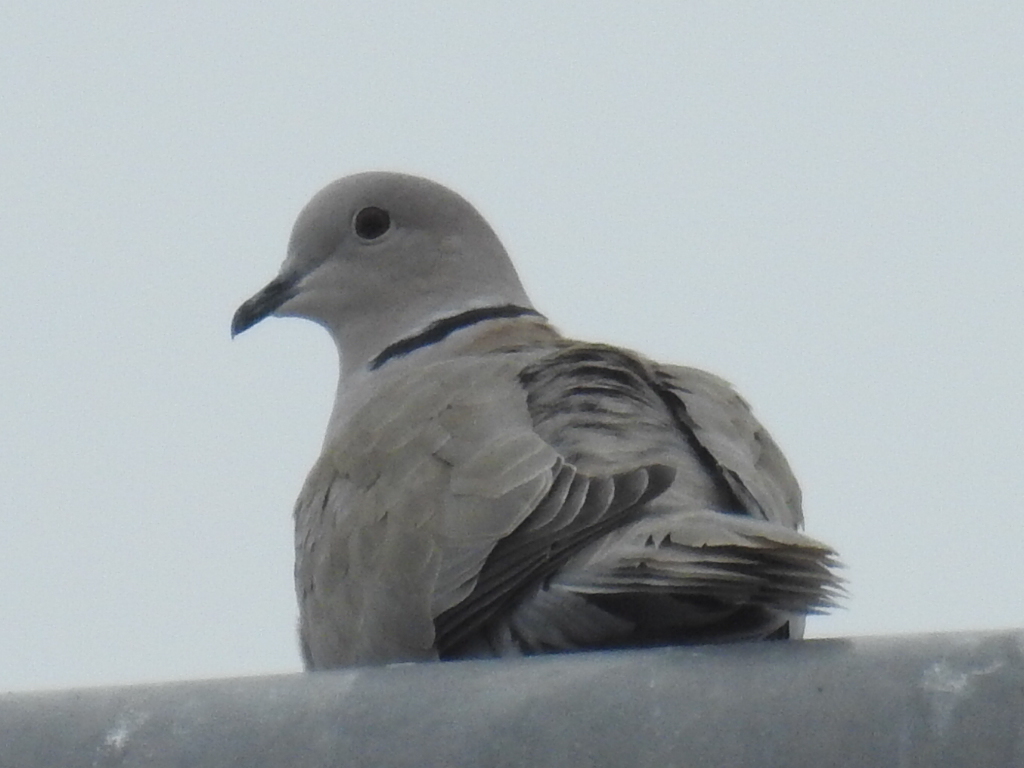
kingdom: Animalia
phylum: Chordata
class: Aves
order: Columbiformes
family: Columbidae
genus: Streptopelia
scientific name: Streptopelia decaocto
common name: Eurasian collared dove
